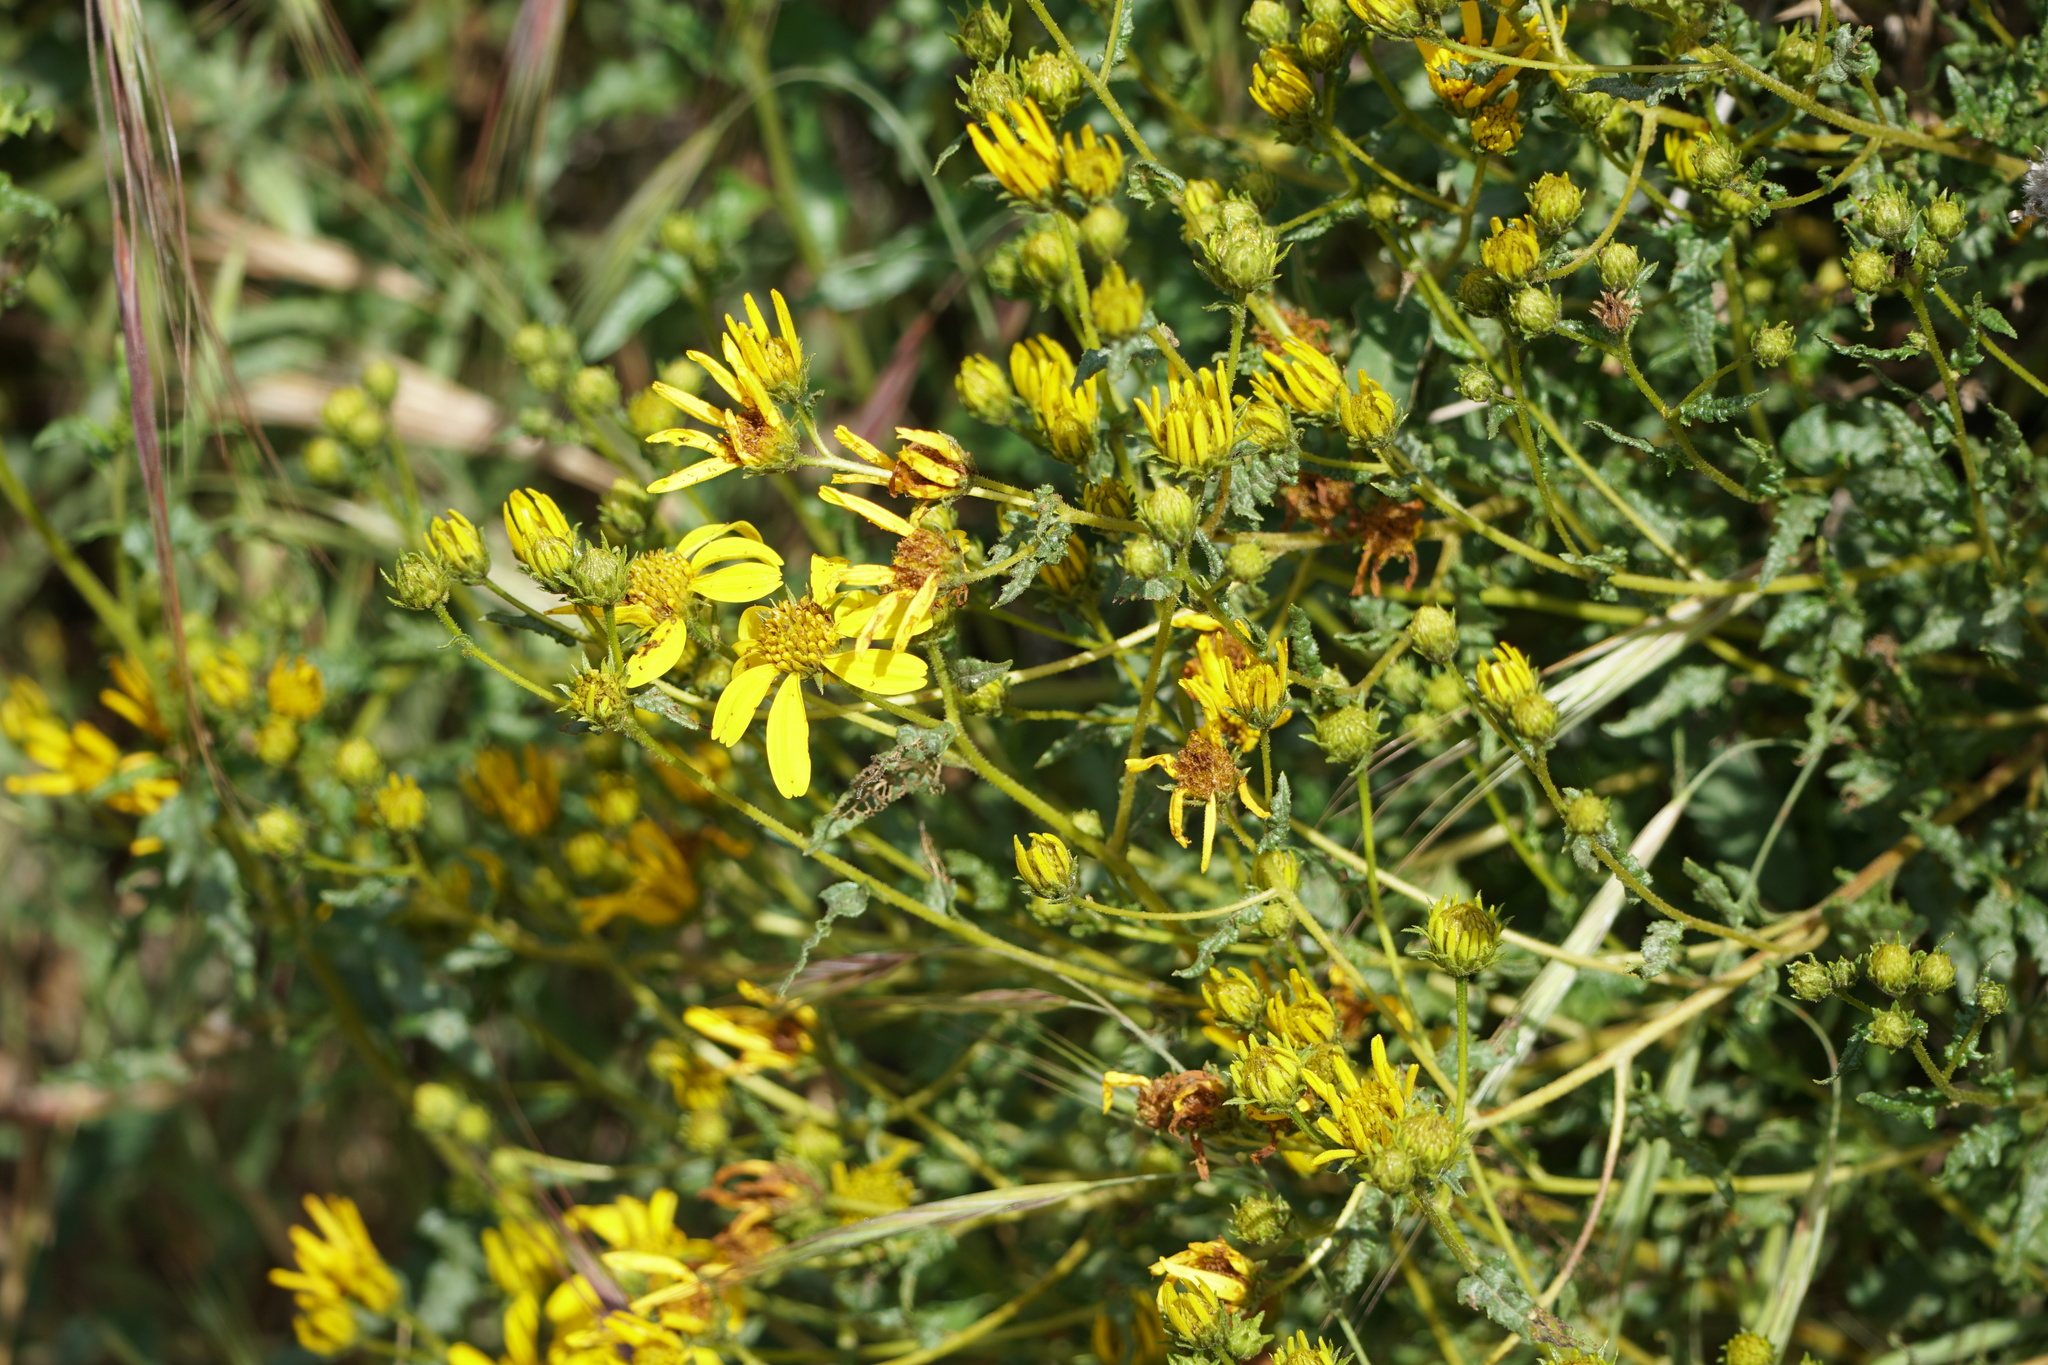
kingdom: Plantae
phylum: Tracheophyta
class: Magnoliopsida
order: Asterales
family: Asteraceae
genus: Bahiopsis
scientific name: Bahiopsis laciniata
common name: San diego county viguiera
